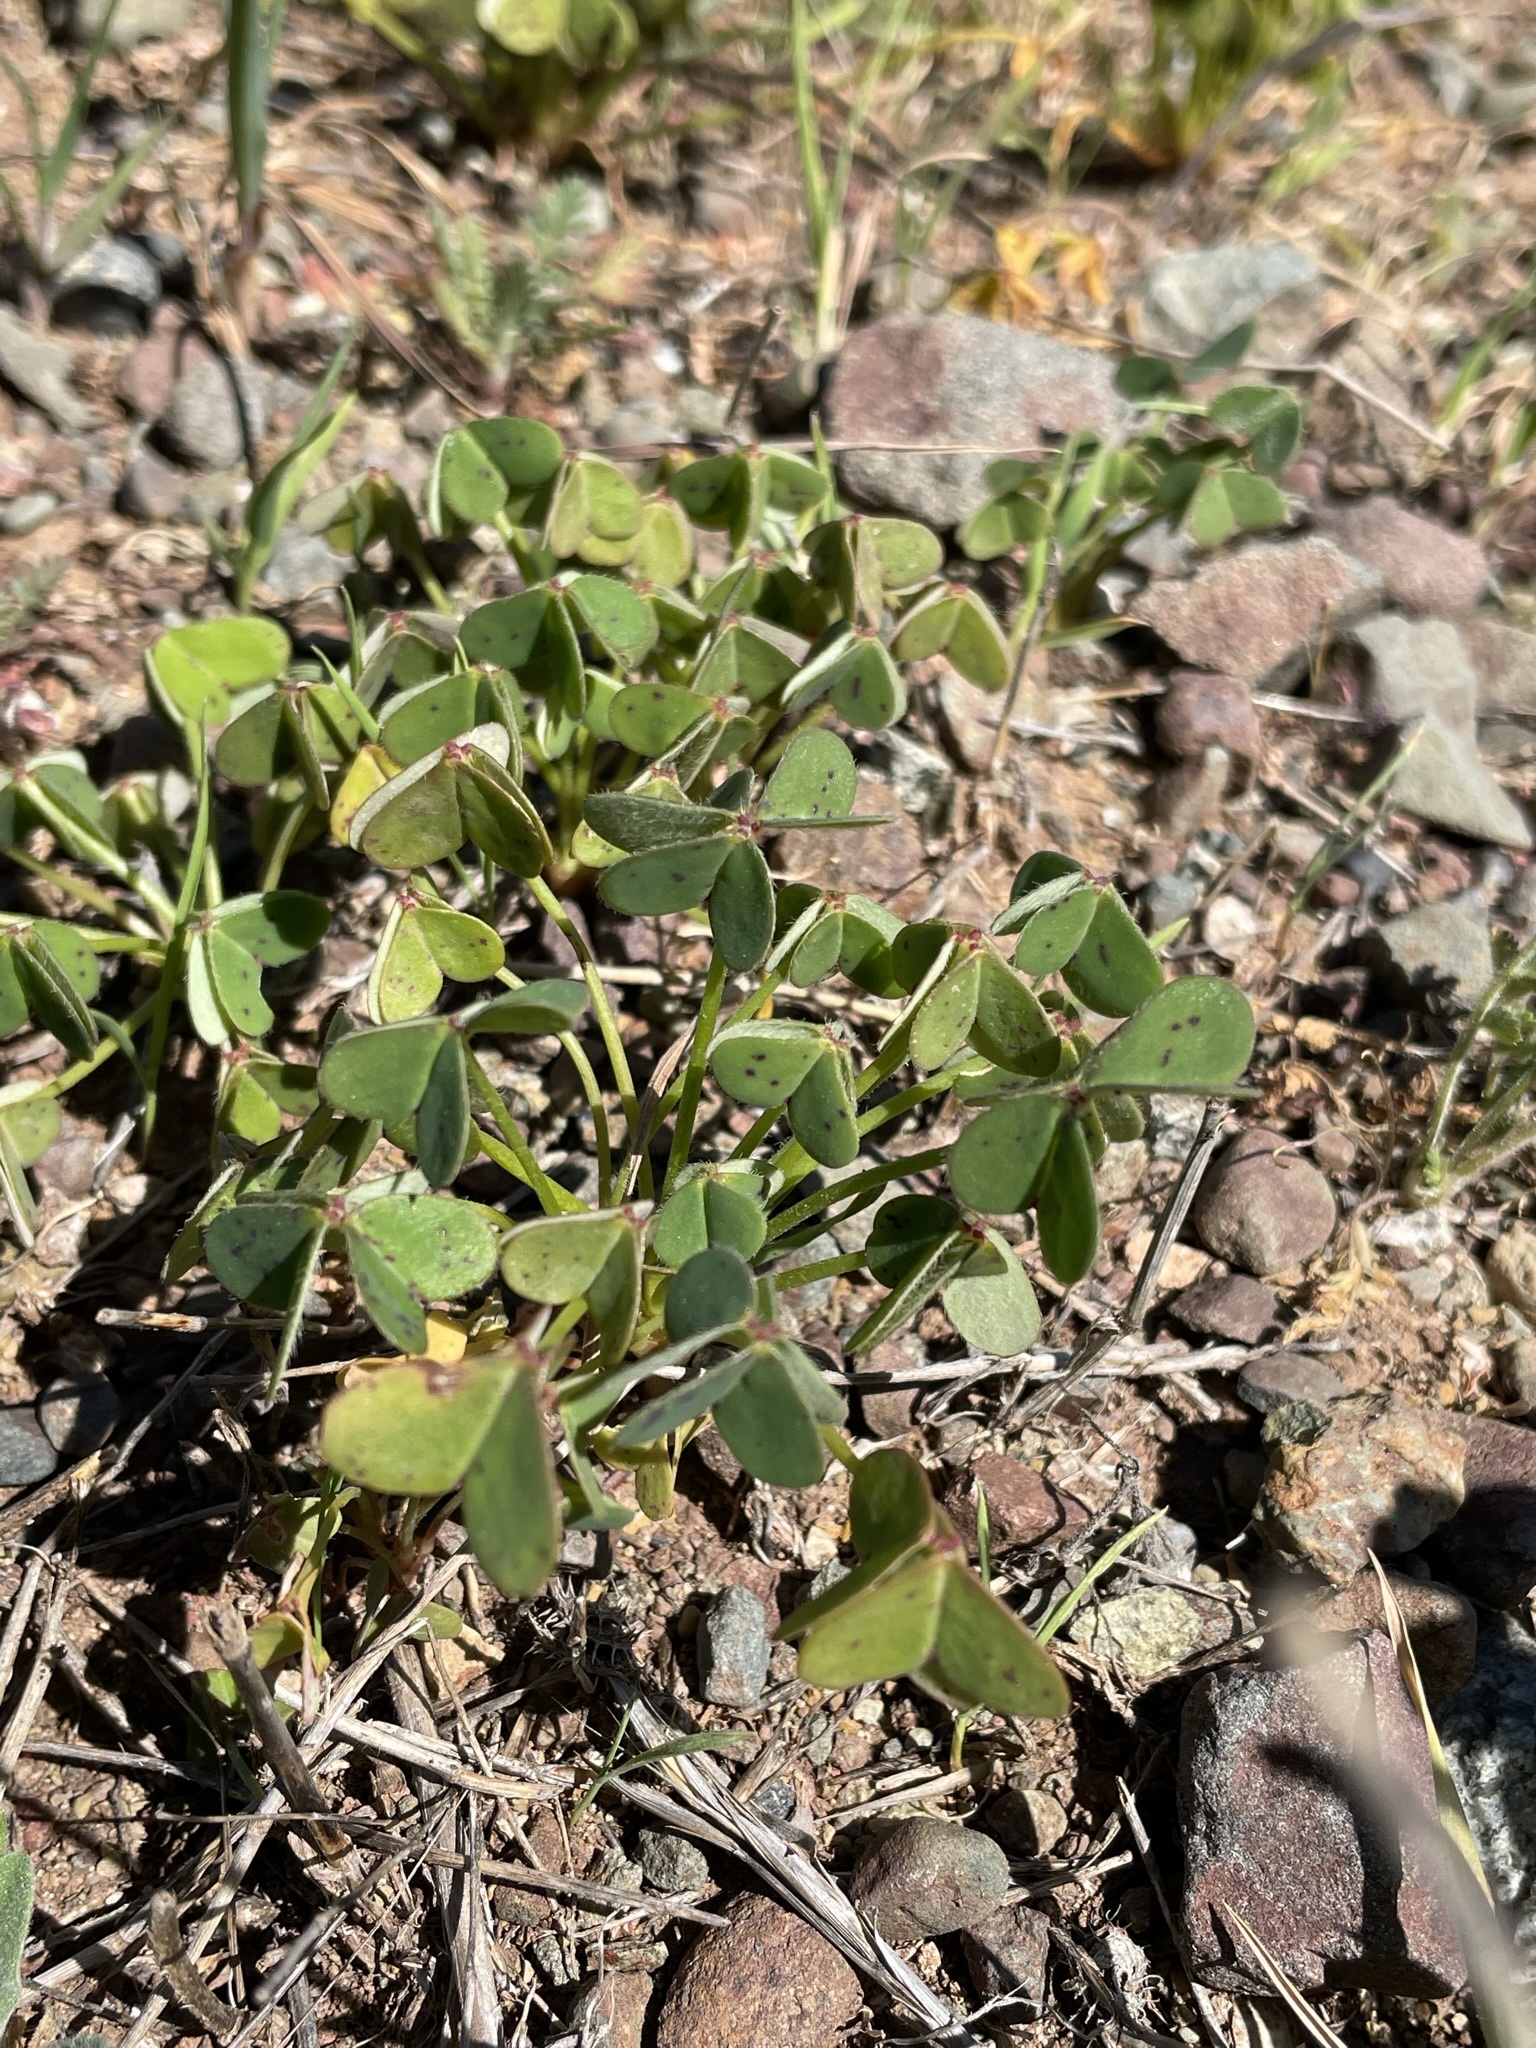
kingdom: Plantae
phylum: Tracheophyta
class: Magnoliopsida
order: Oxalidales
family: Oxalidaceae
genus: Oxalis
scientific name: Oxalis pes-caprae
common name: Bermuda-buttercup
